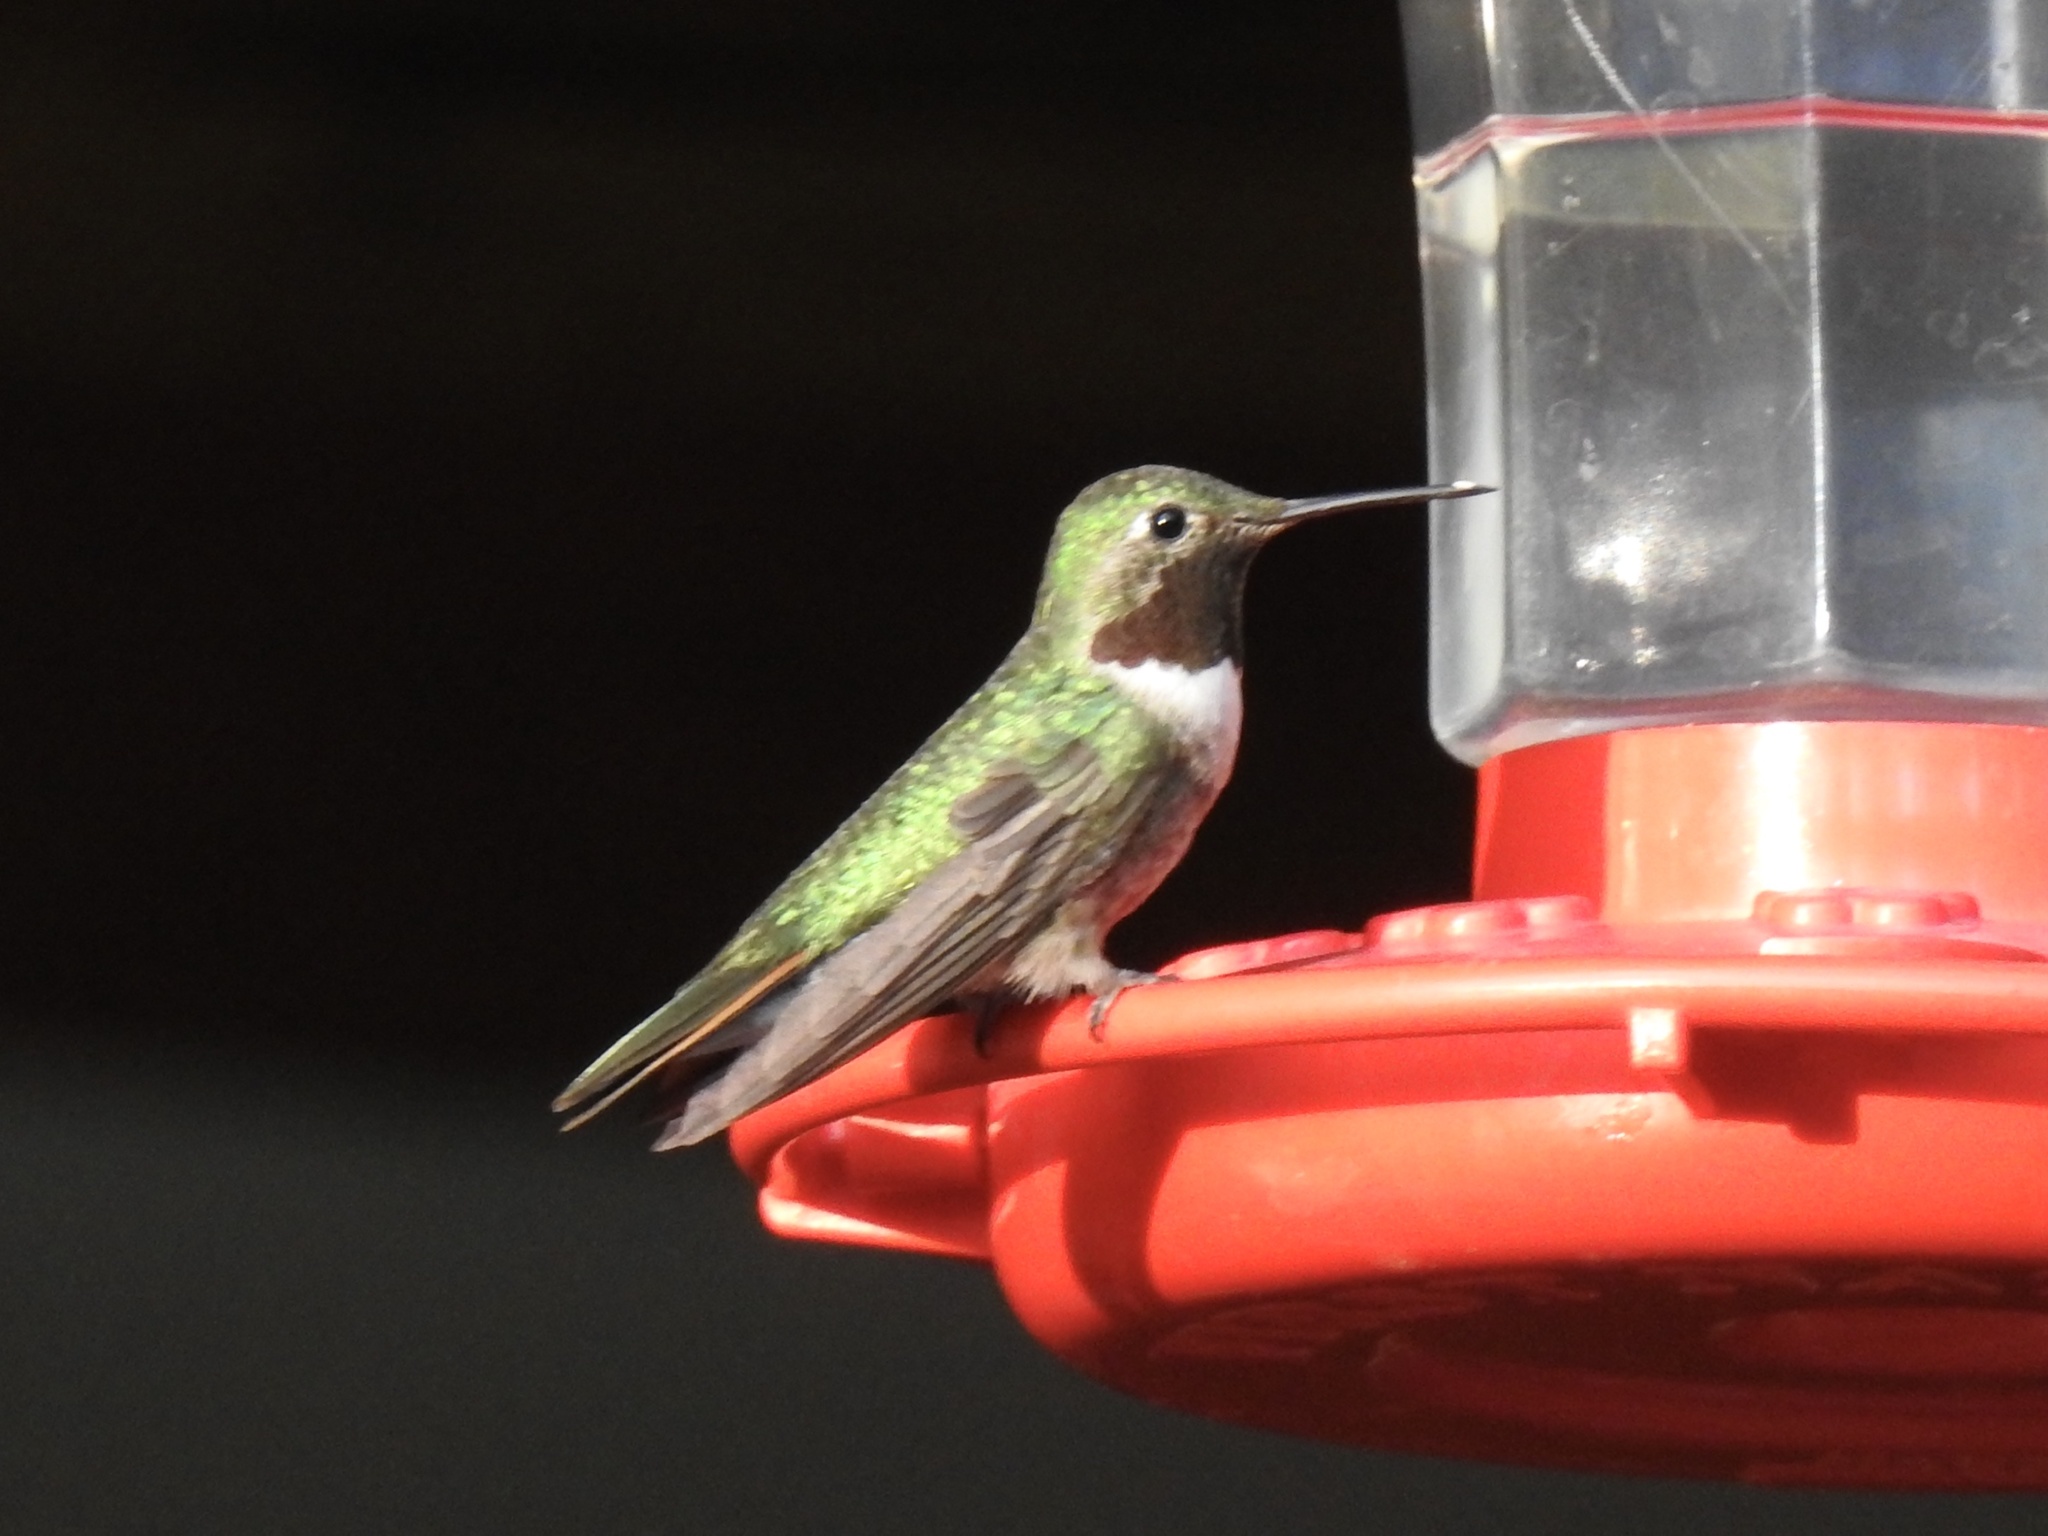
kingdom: Animalia
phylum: Chordata
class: Aves
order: Apodiformes
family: Trochilidae
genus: Selasphorus
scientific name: Selasphorus platycercus
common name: Broad-tailed hummingbird
